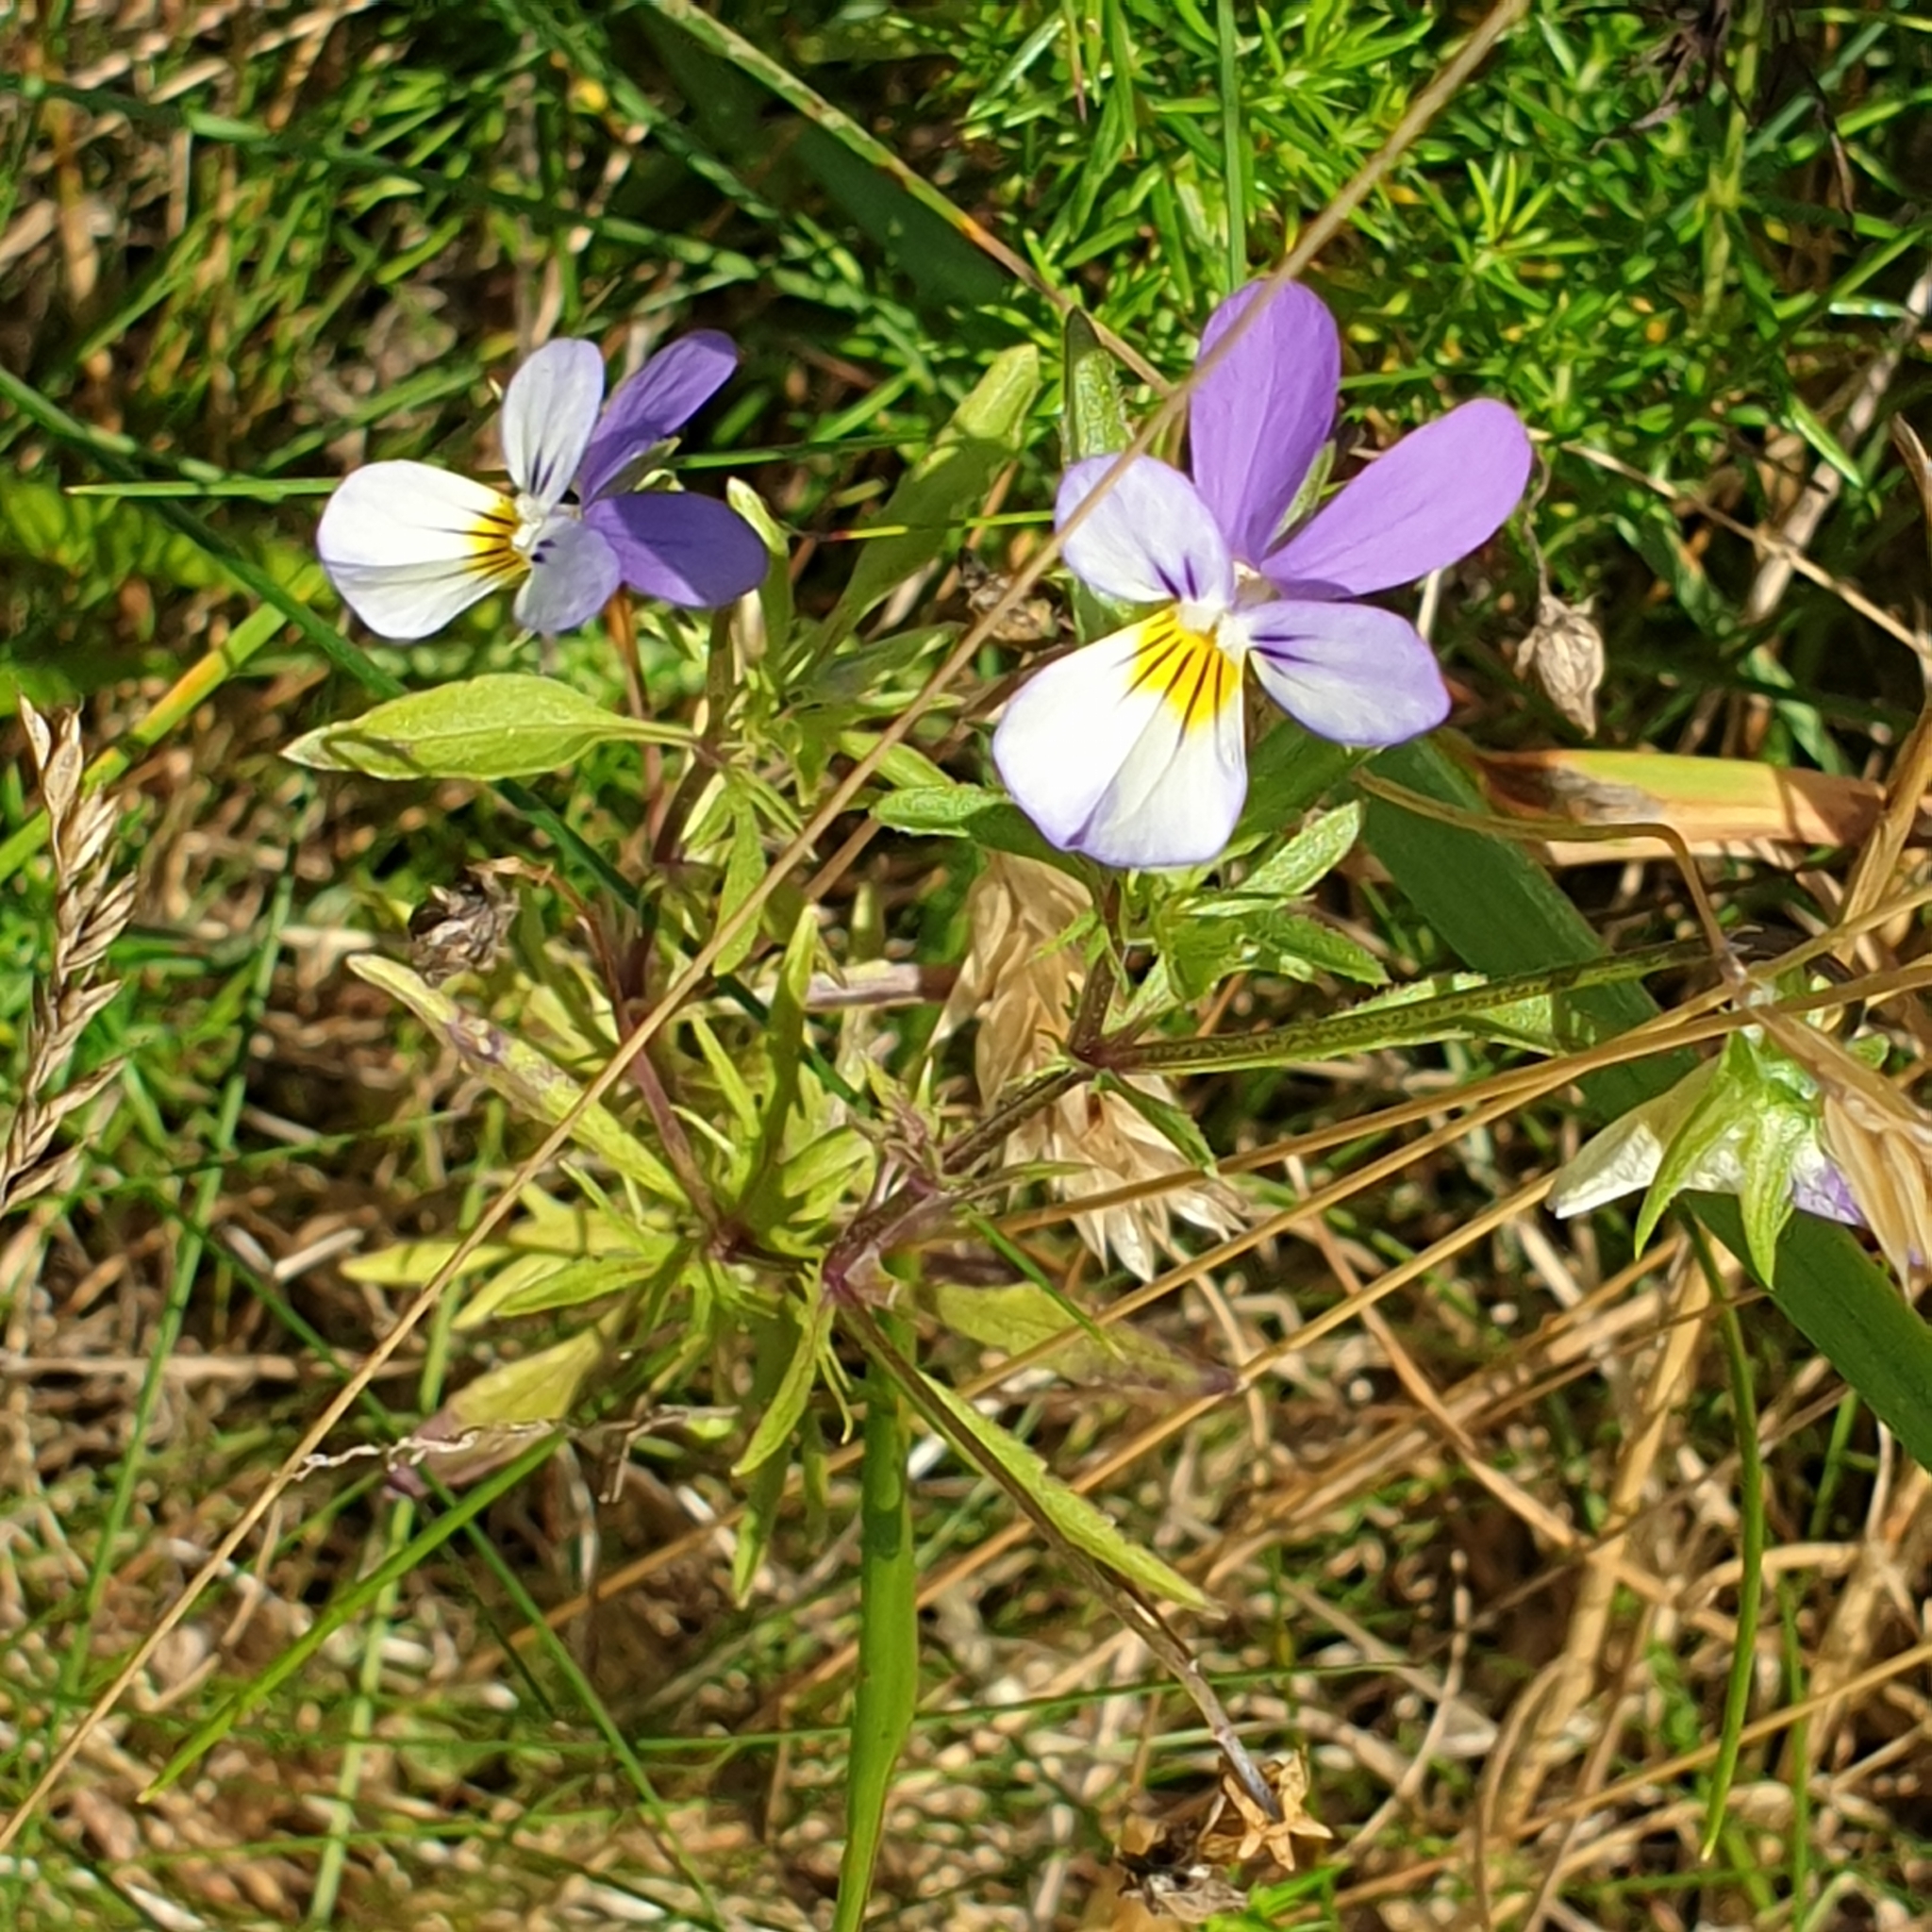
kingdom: Plantae
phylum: Tracheophyta
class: Magnoliopsida
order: Malpighiales
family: Violaceae
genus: Viola
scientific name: Viola tricolor
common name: Pansy
